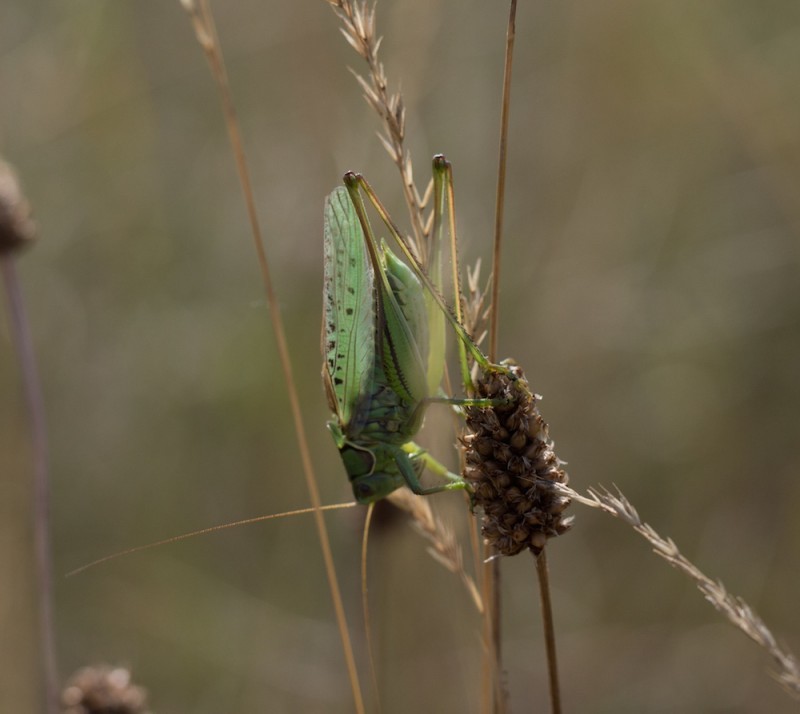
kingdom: Animalia
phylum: Arthropoda
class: Insecta
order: Orthoptera
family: Tettigoniidae
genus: Gampsocleis
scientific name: Gampsocleis glabra
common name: Heath bushcricket
